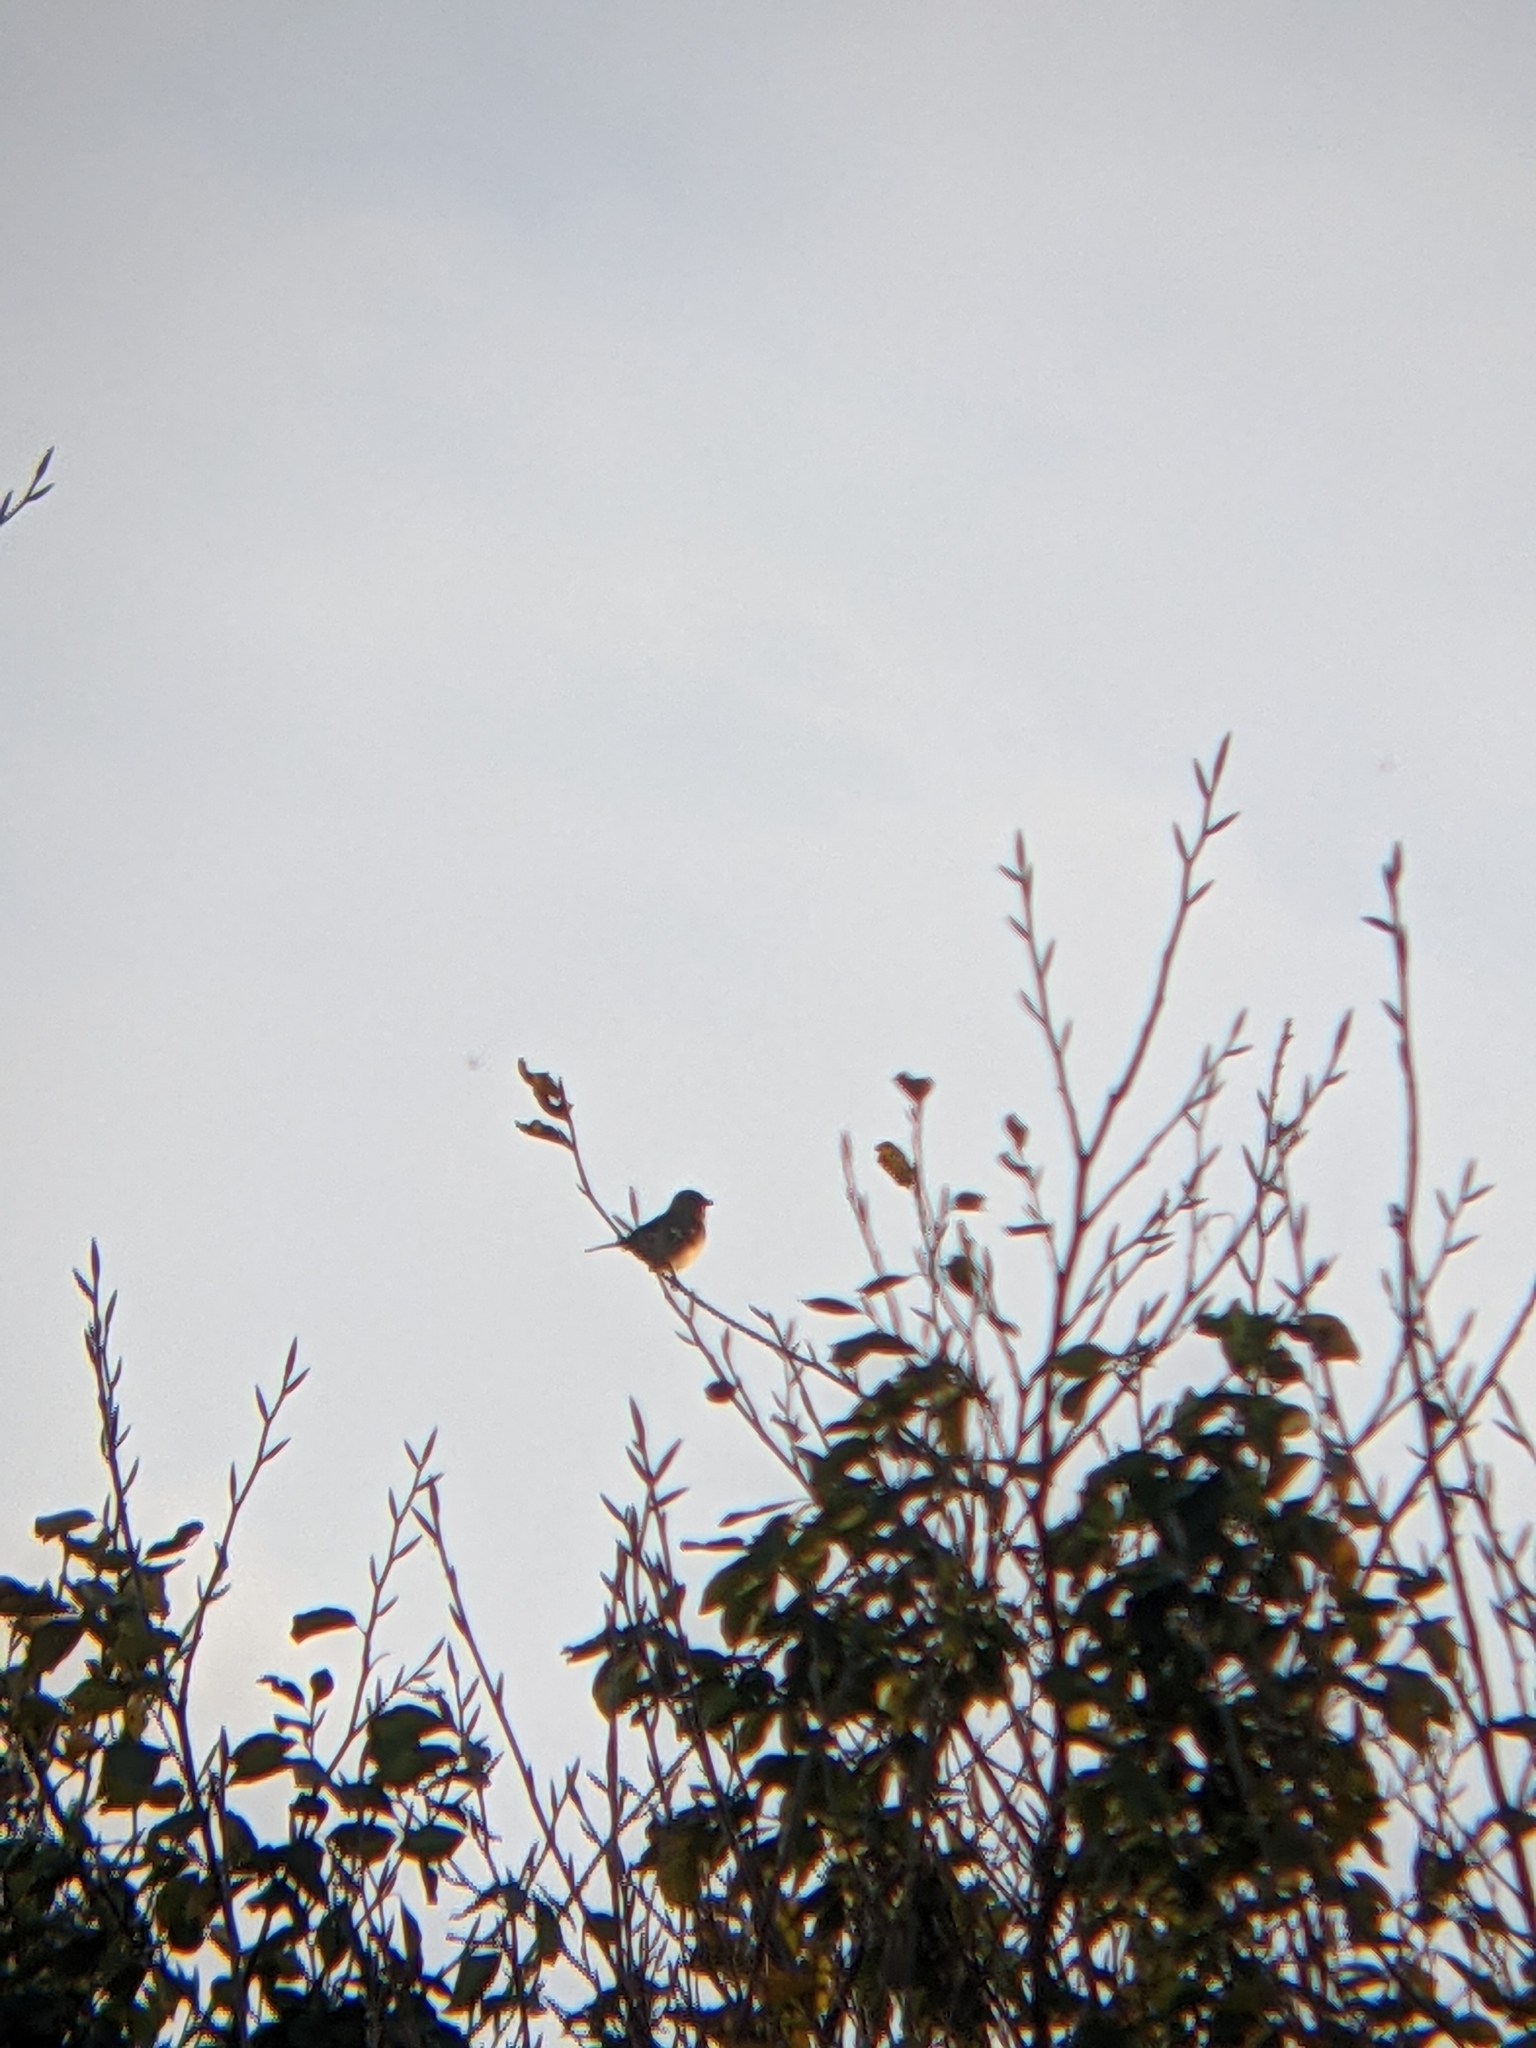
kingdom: Animalia
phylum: Chordata
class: Aves
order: Passeriformes
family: Fringillidae
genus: Fringilla
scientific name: Fringilla coelebs
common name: Common chaffinch
